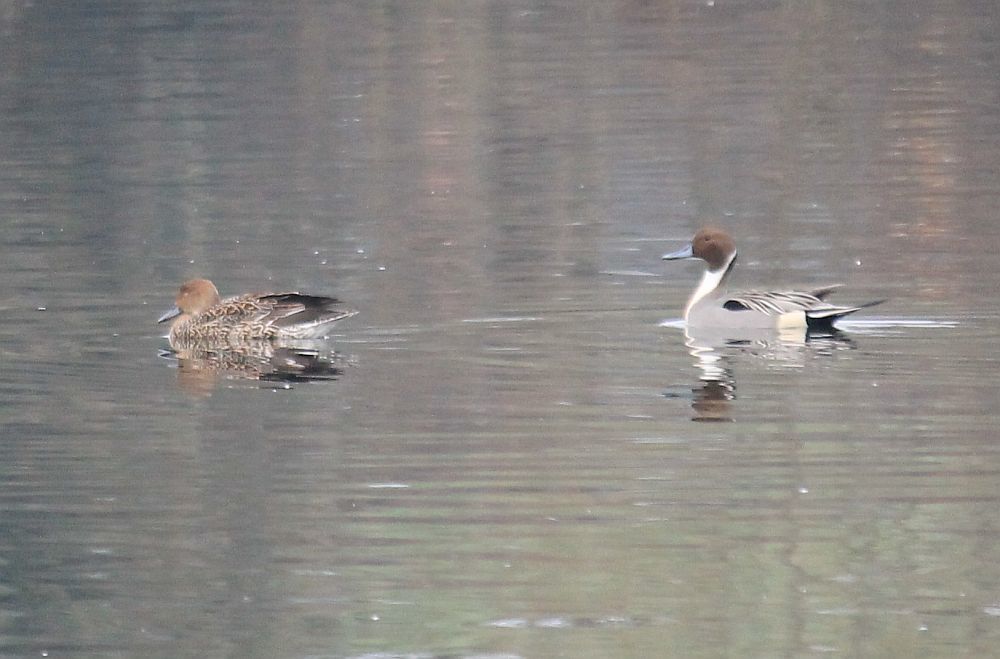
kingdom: Animalia
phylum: Chordata
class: Aves
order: Anseriformes
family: Anatidae
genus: Anas
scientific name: Anas acuta
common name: Northern pintail
